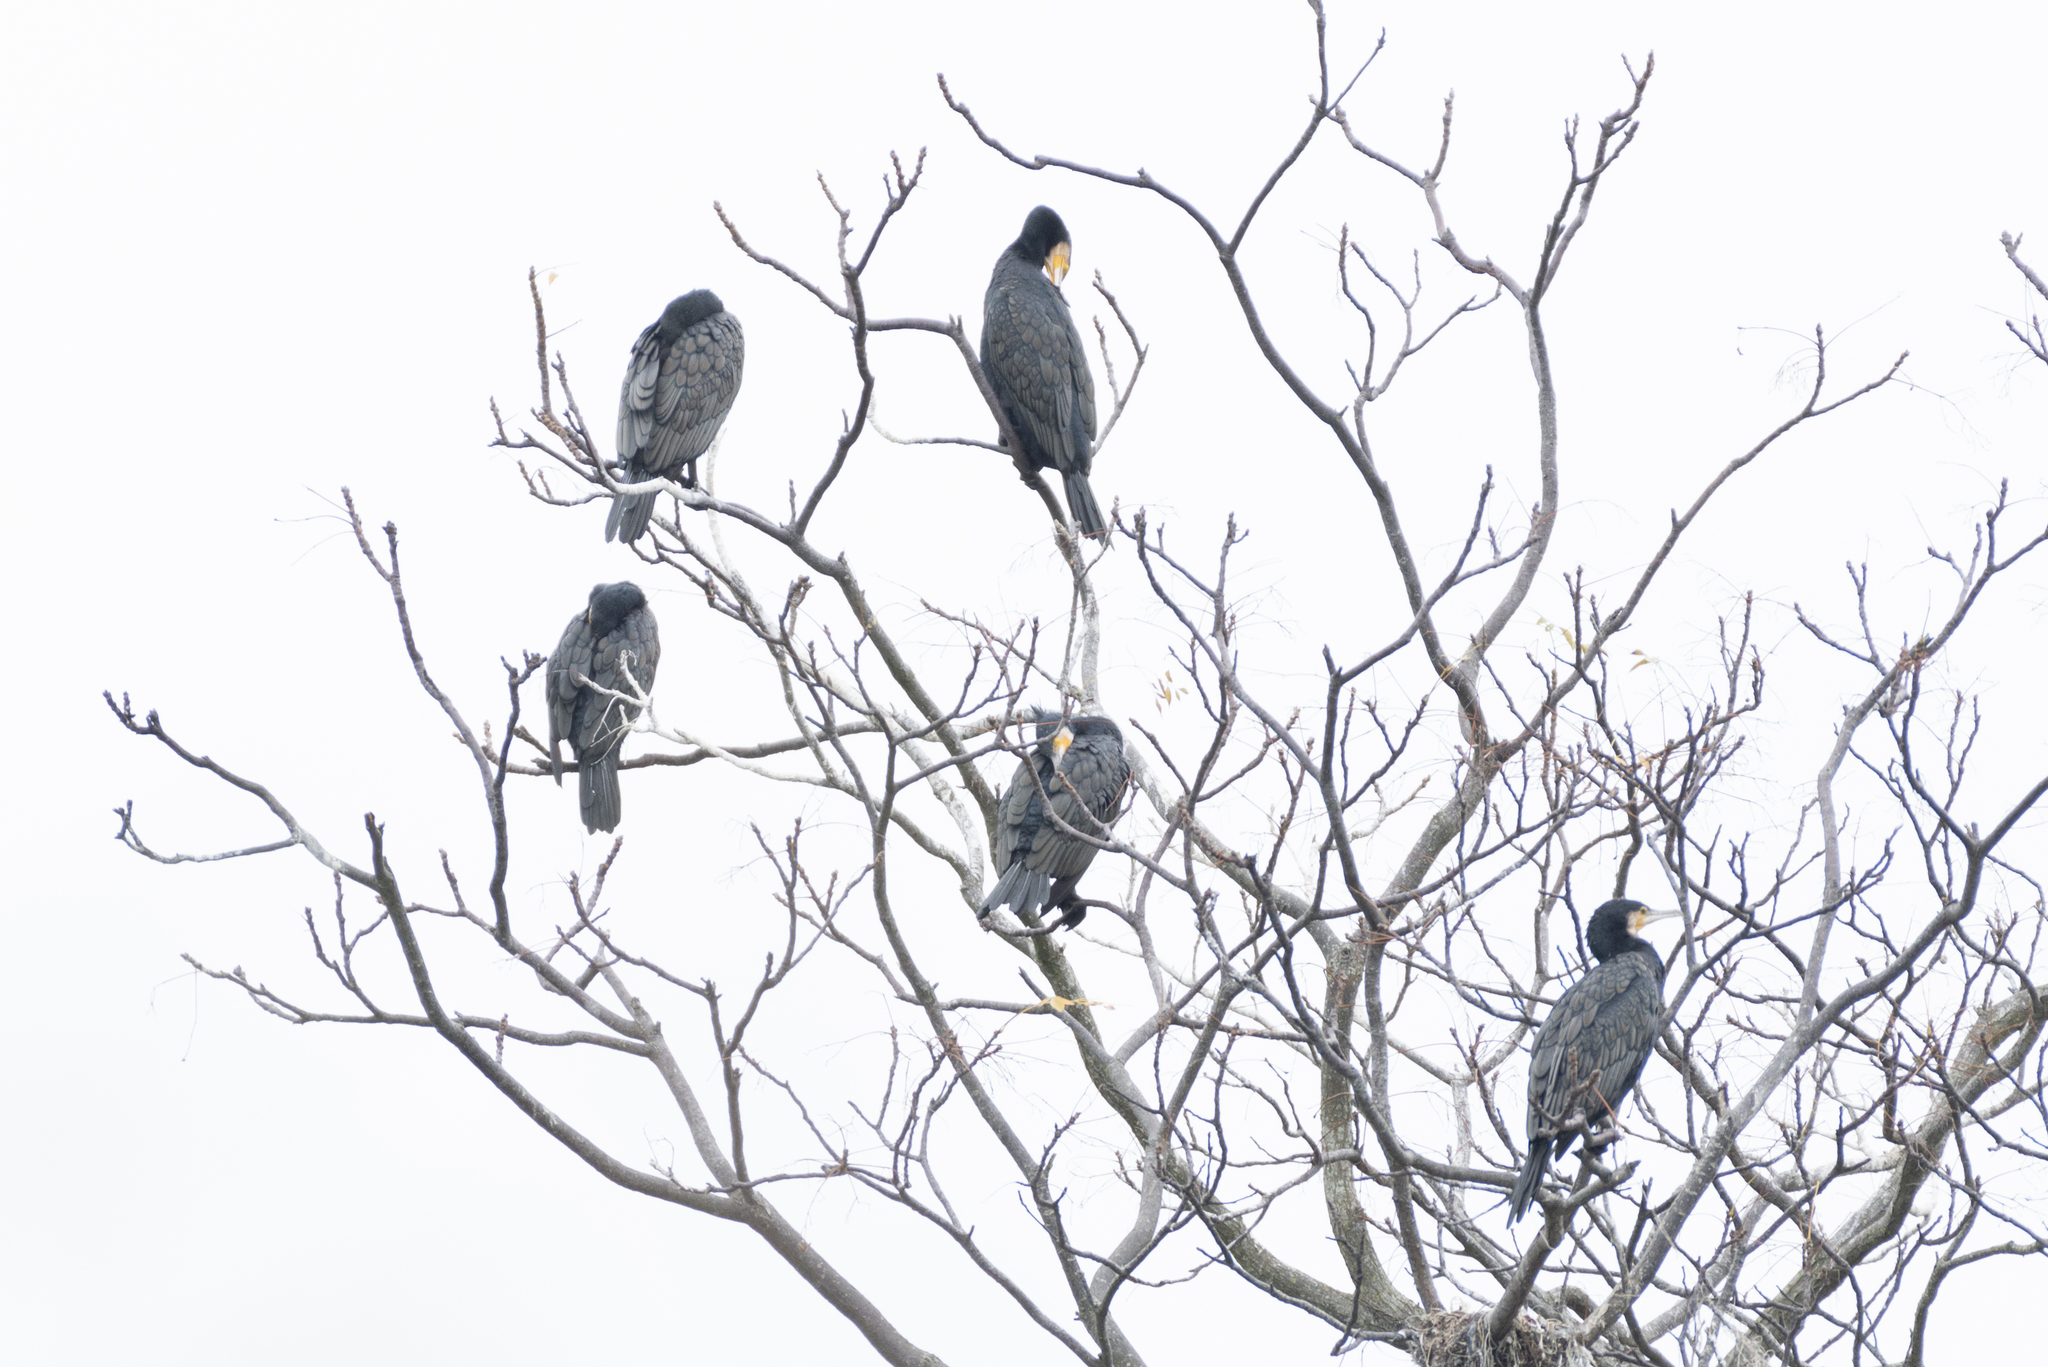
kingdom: Animalia
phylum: Chordata
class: Aves
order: Suliformes
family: Phalacrocoracidae
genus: Phalacrocorax
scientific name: Phalacrocorax carbo
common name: Great cormorant
